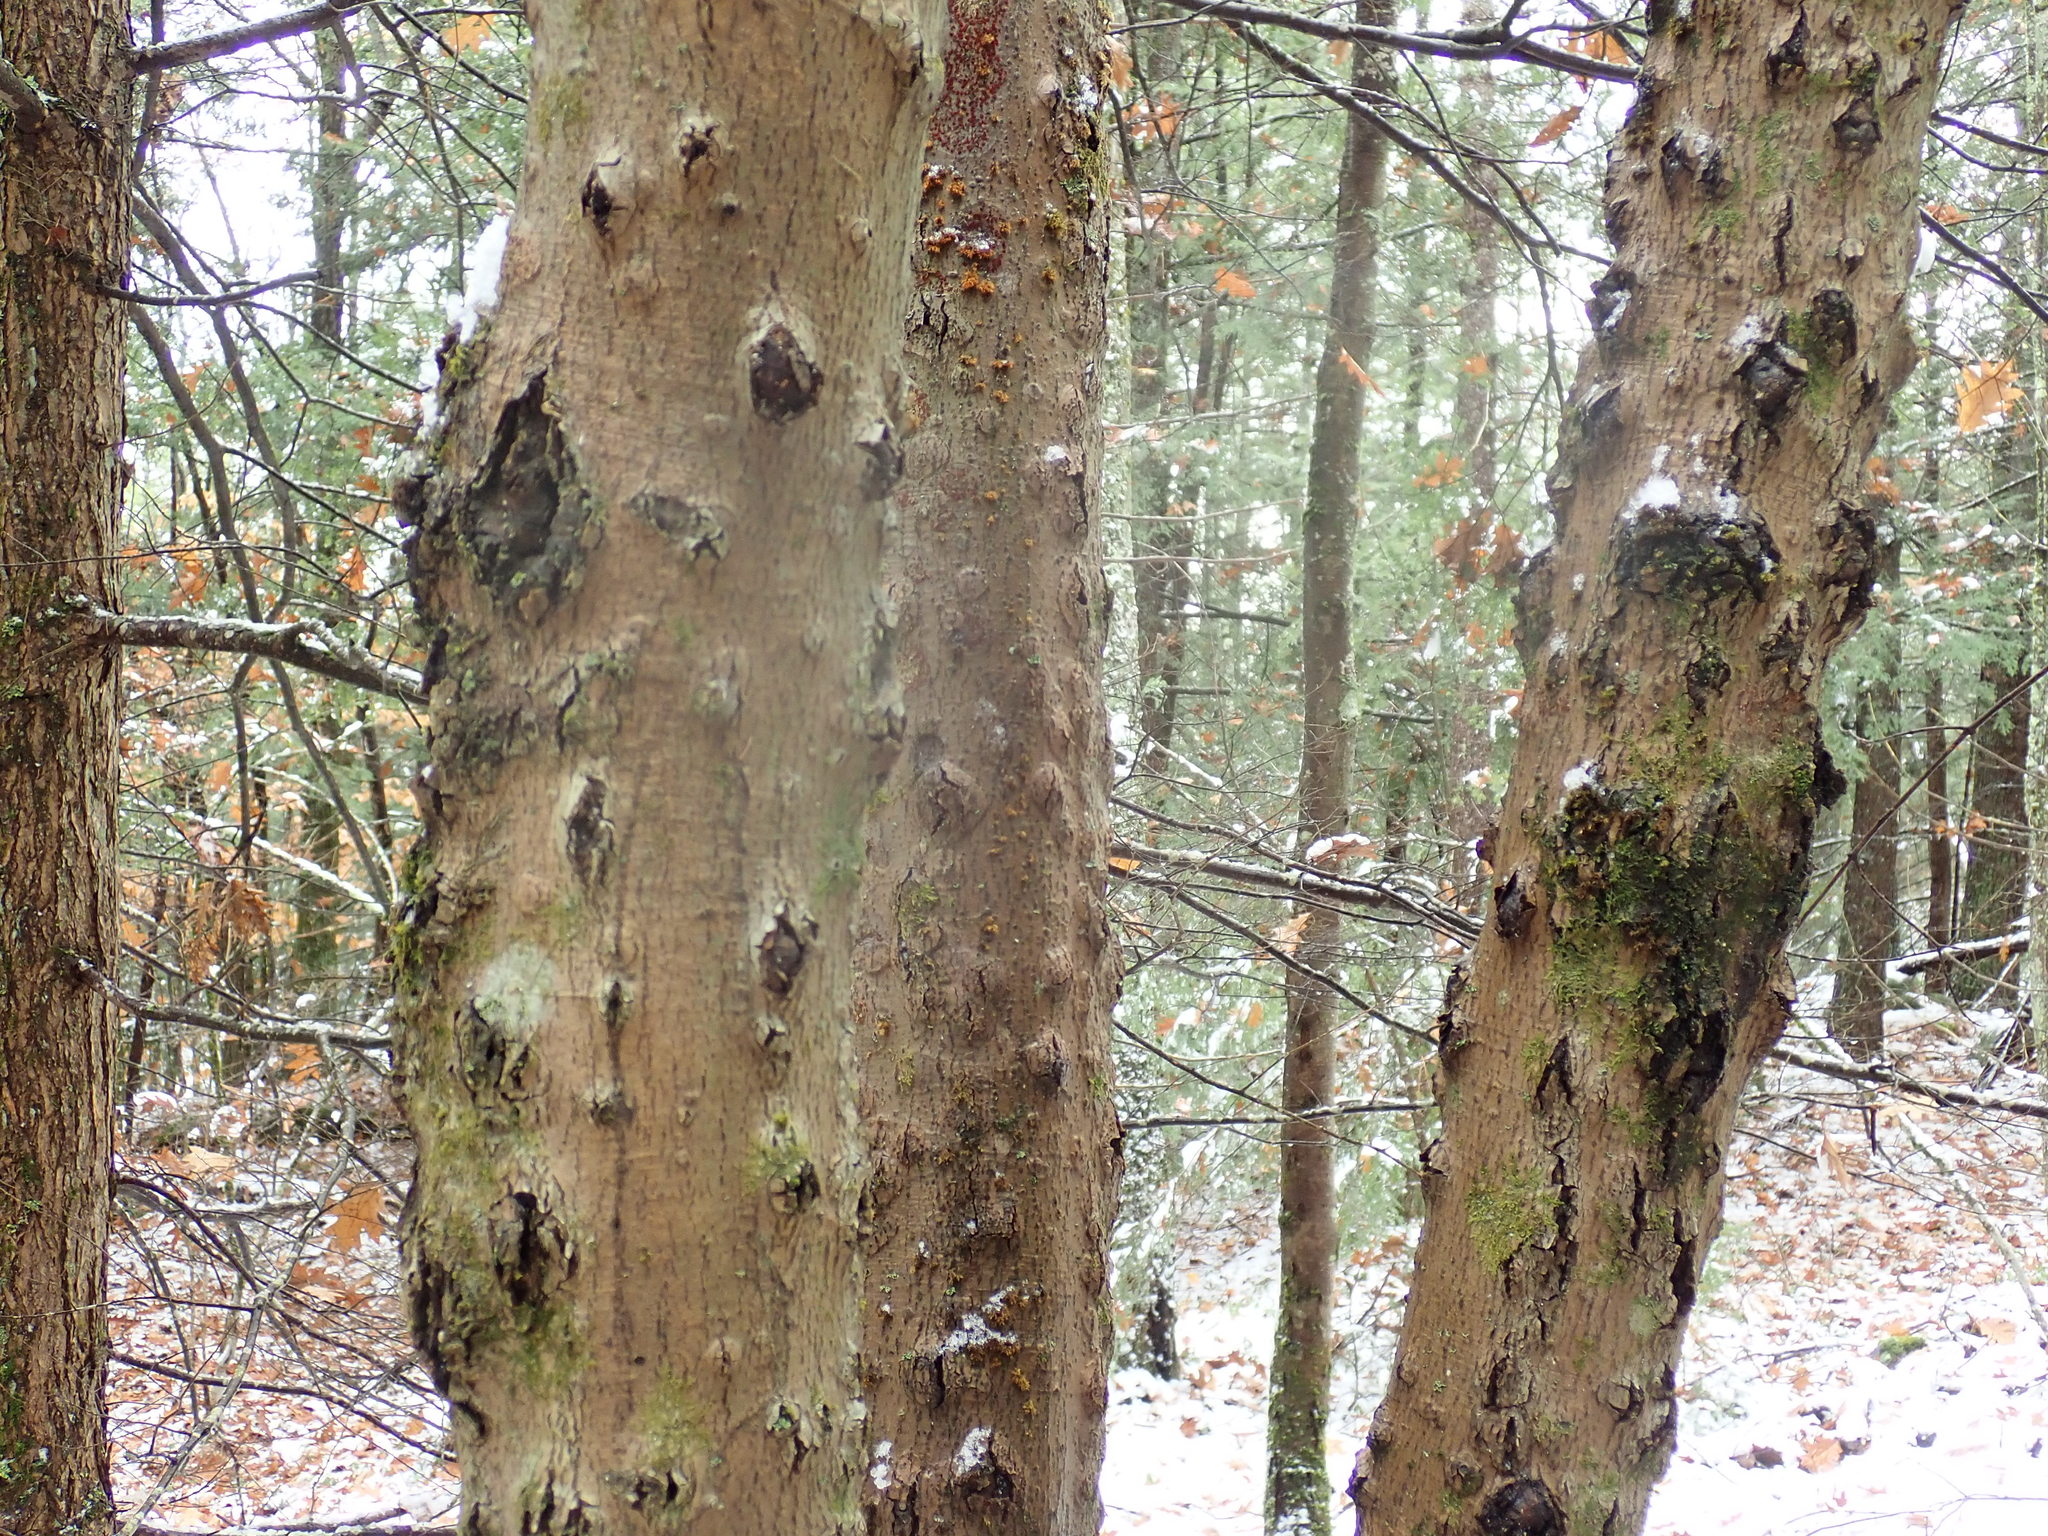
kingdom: Fungi
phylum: Ascomycota
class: Sordariomycetes
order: Hypocreales
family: Nectriaceae
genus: Neonectria
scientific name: Neonectria faginata
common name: Beech bark canker
